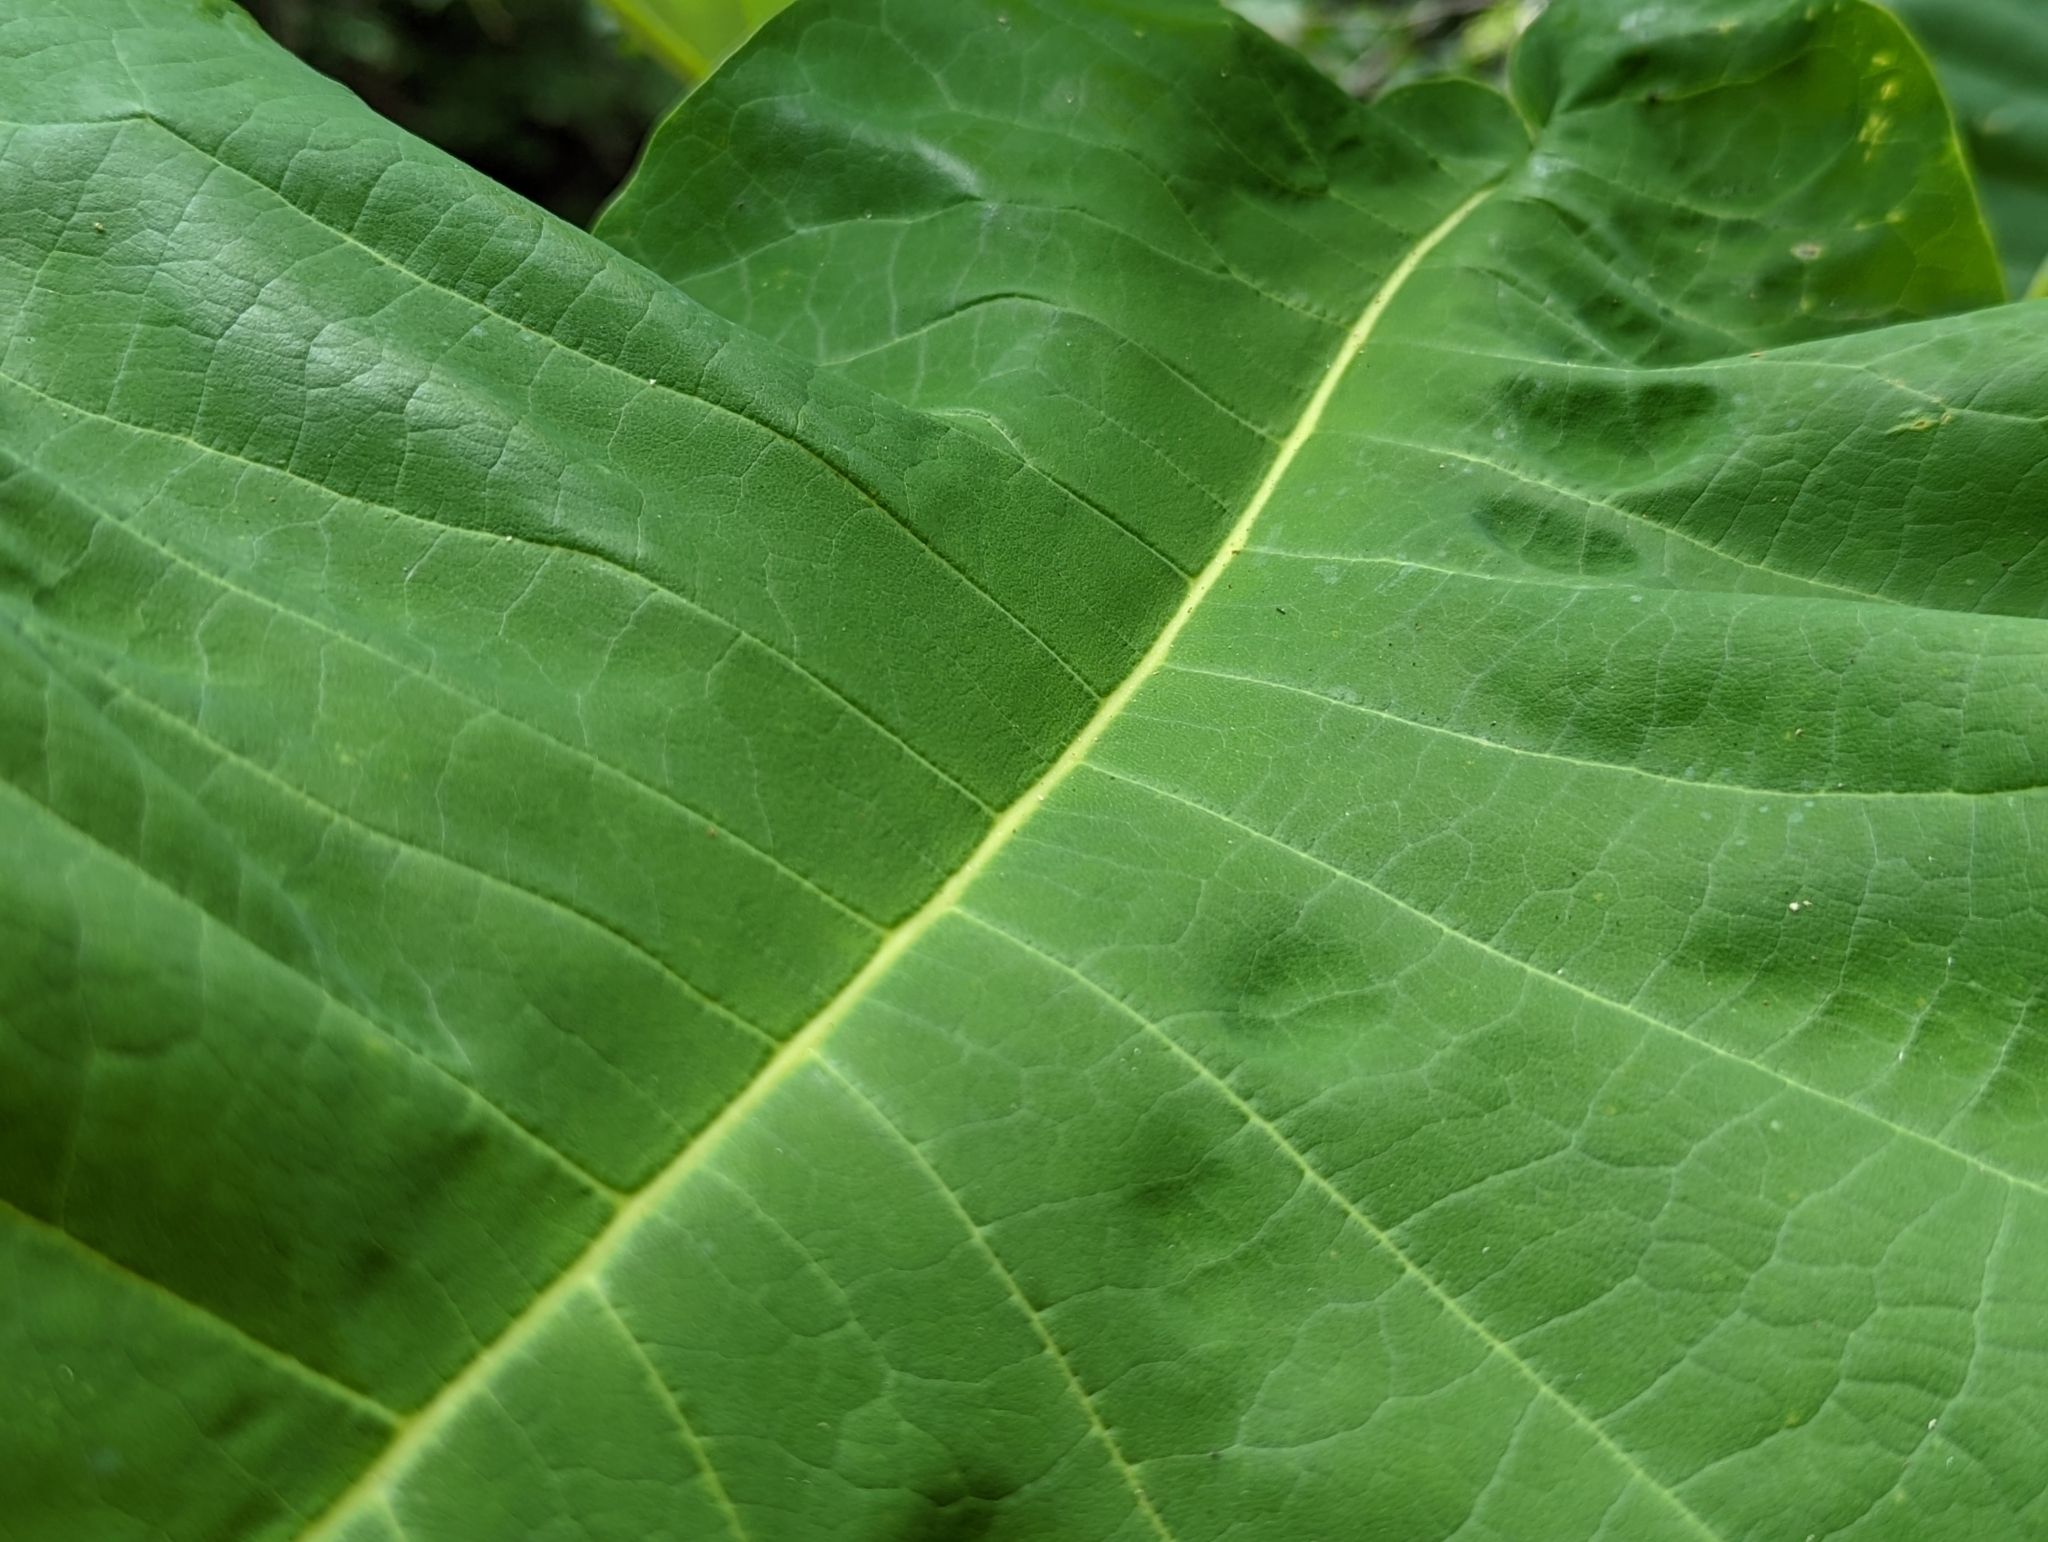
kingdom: Plantae
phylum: Tracheophyta
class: Magnoliopsida
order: Magnoliales
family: Magnoliaceae
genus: Magnolia
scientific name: Magnolia macrophylla
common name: Big-leaf magnolia
